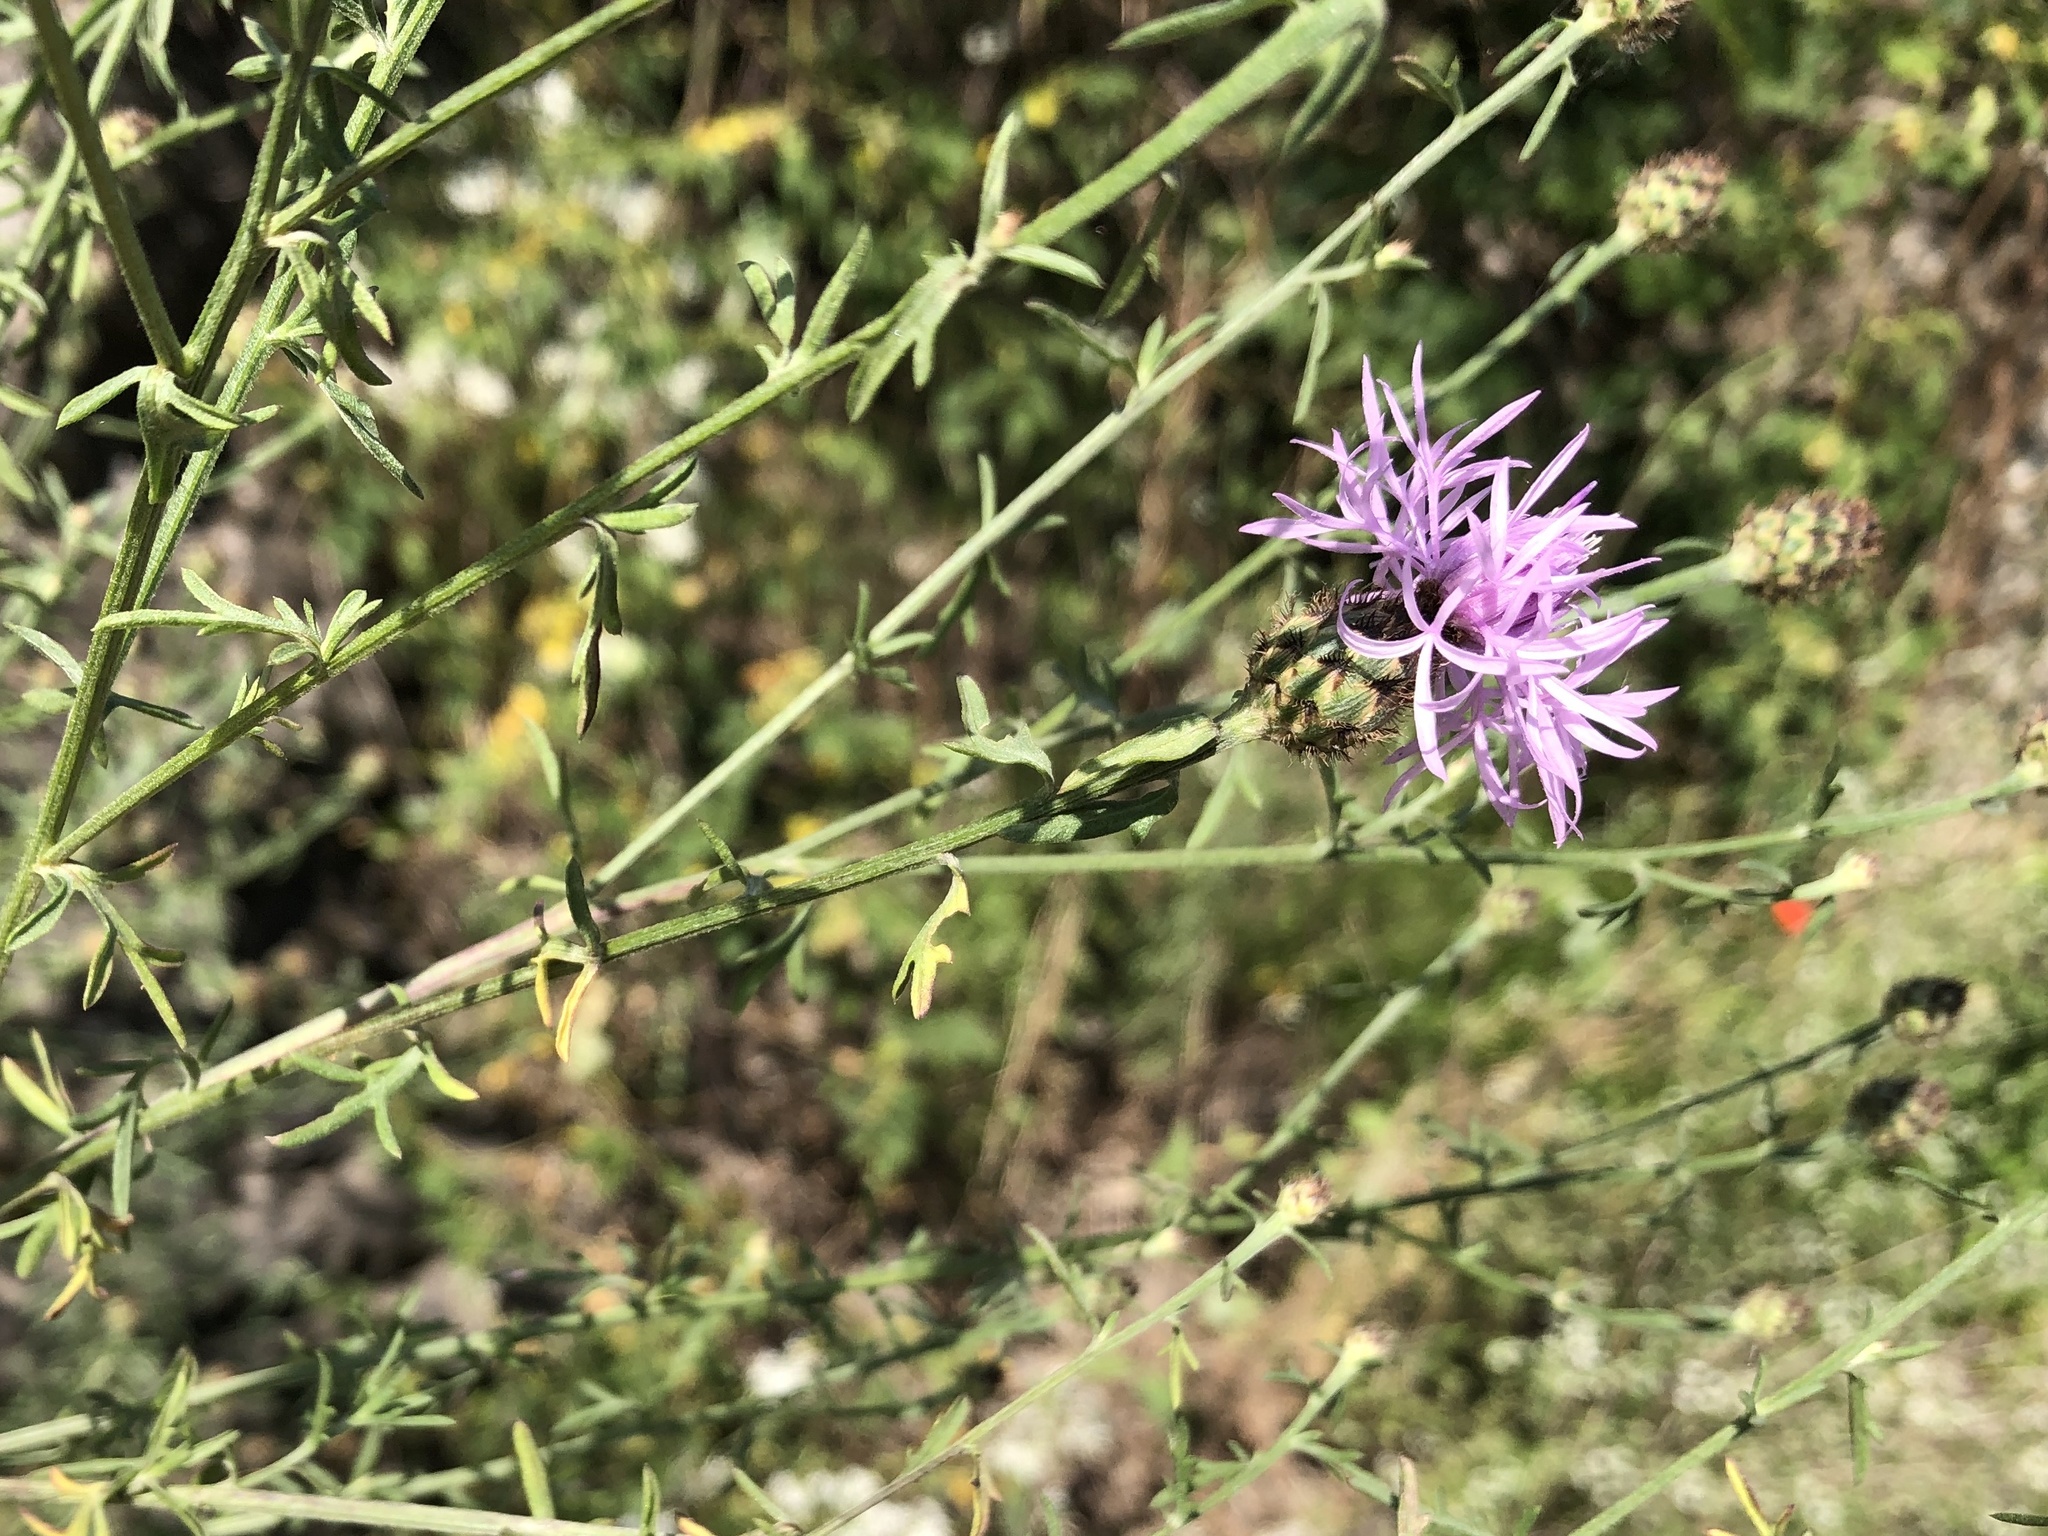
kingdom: Plantae
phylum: Tracheophyta
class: Magnoliopsida
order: Asterales
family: Asteraceae
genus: Centaurea
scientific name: Centaurea stoebe
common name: Spotted knapweed
